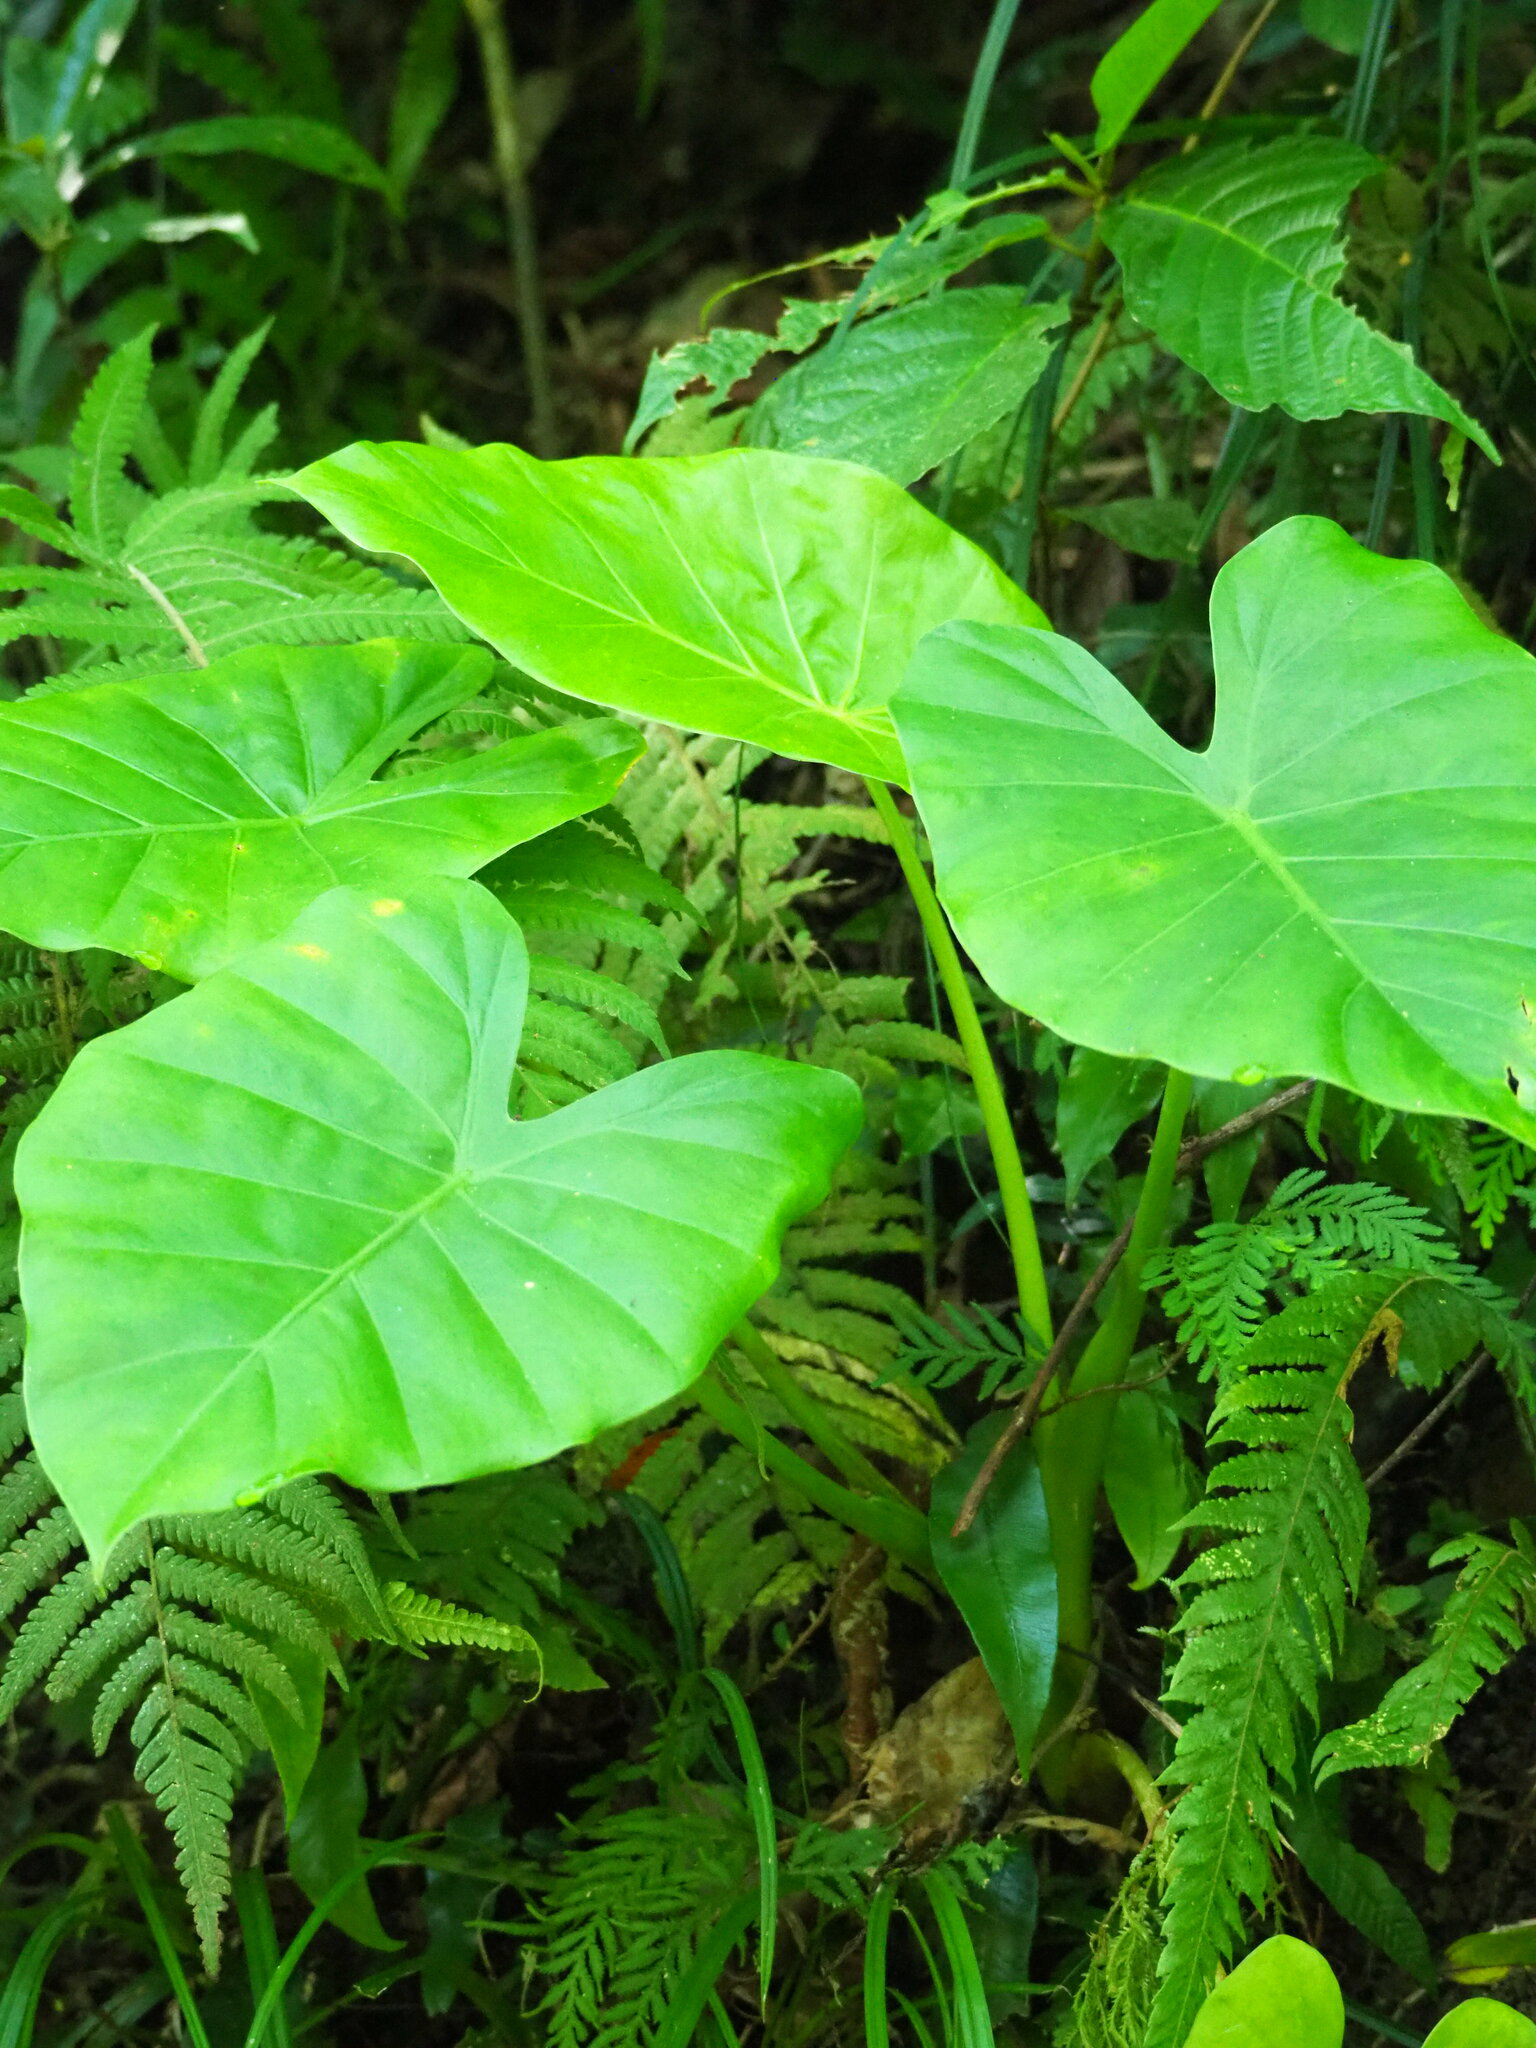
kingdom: Plantae
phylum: Tracheophyta
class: Liliopsida
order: Alismatales
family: Araceae
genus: Alocasia
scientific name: Alocasia odora
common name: Asian taro
